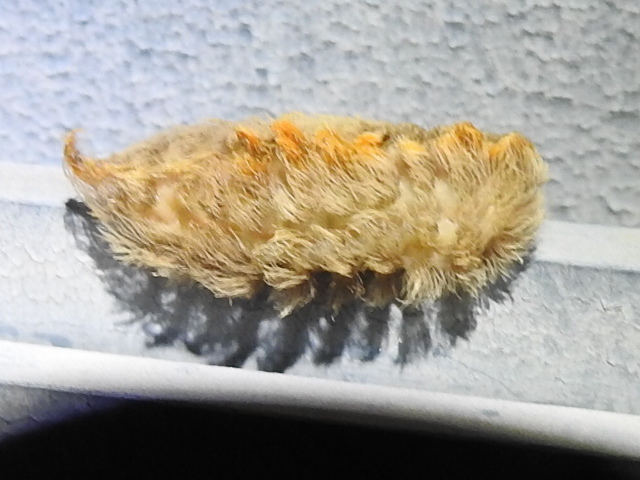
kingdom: Animalia
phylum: Arthropoda
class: Insecta
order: Lepidoptera
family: Megalopygidae
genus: Megalopyge
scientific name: Megalopyge opercularis
